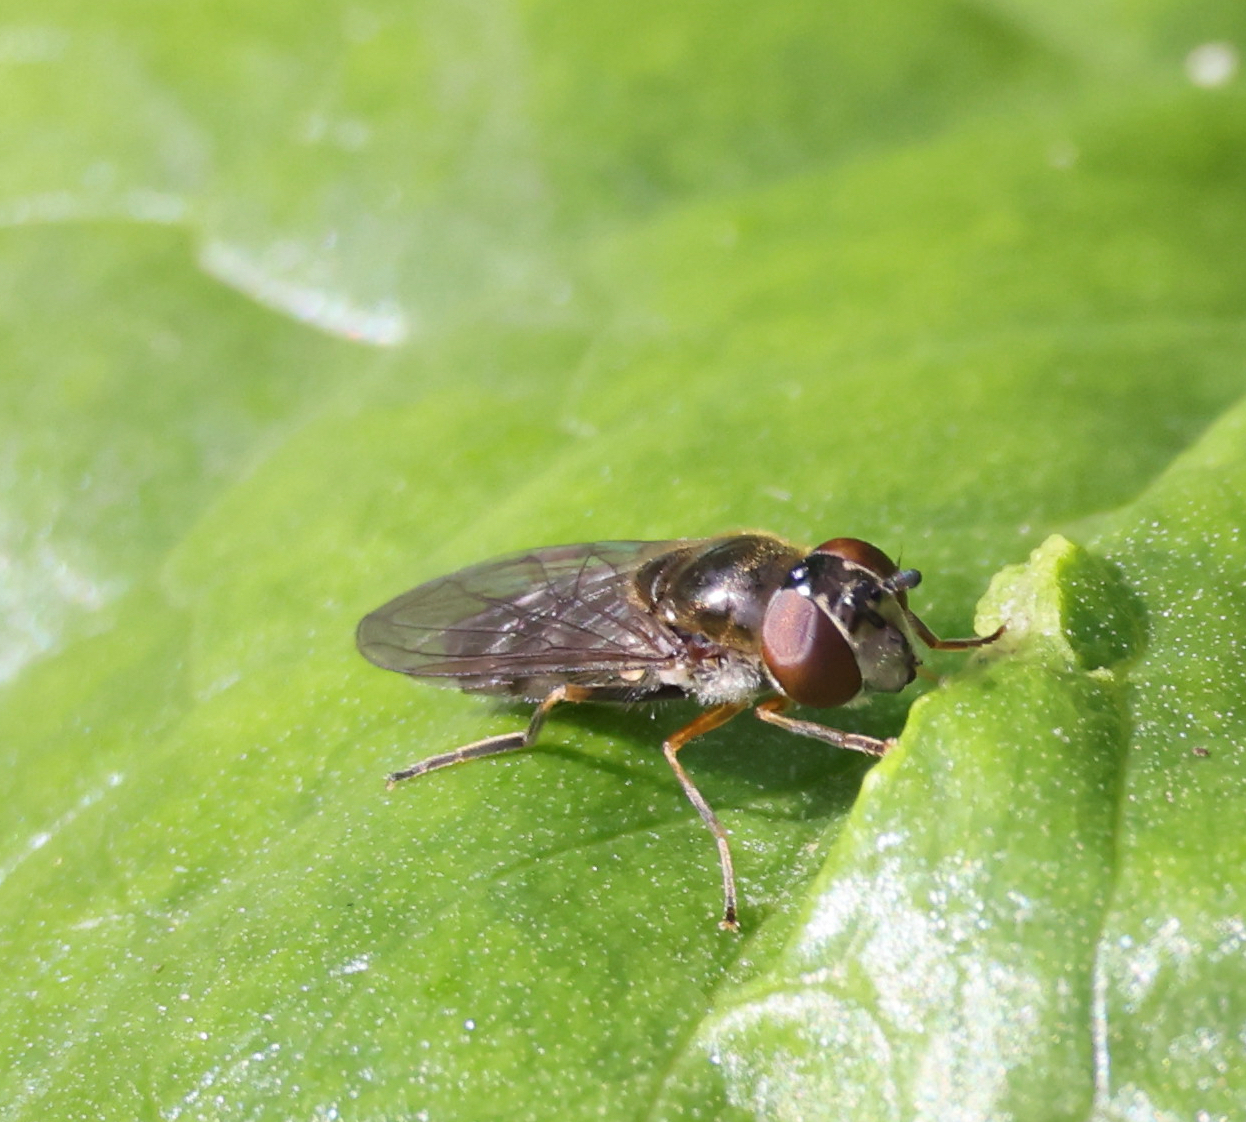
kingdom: Animalia
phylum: Arthropoda
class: Insecta
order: Diptera
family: Syrphidae
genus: Platycheirus
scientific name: Platycheirus albimanus
